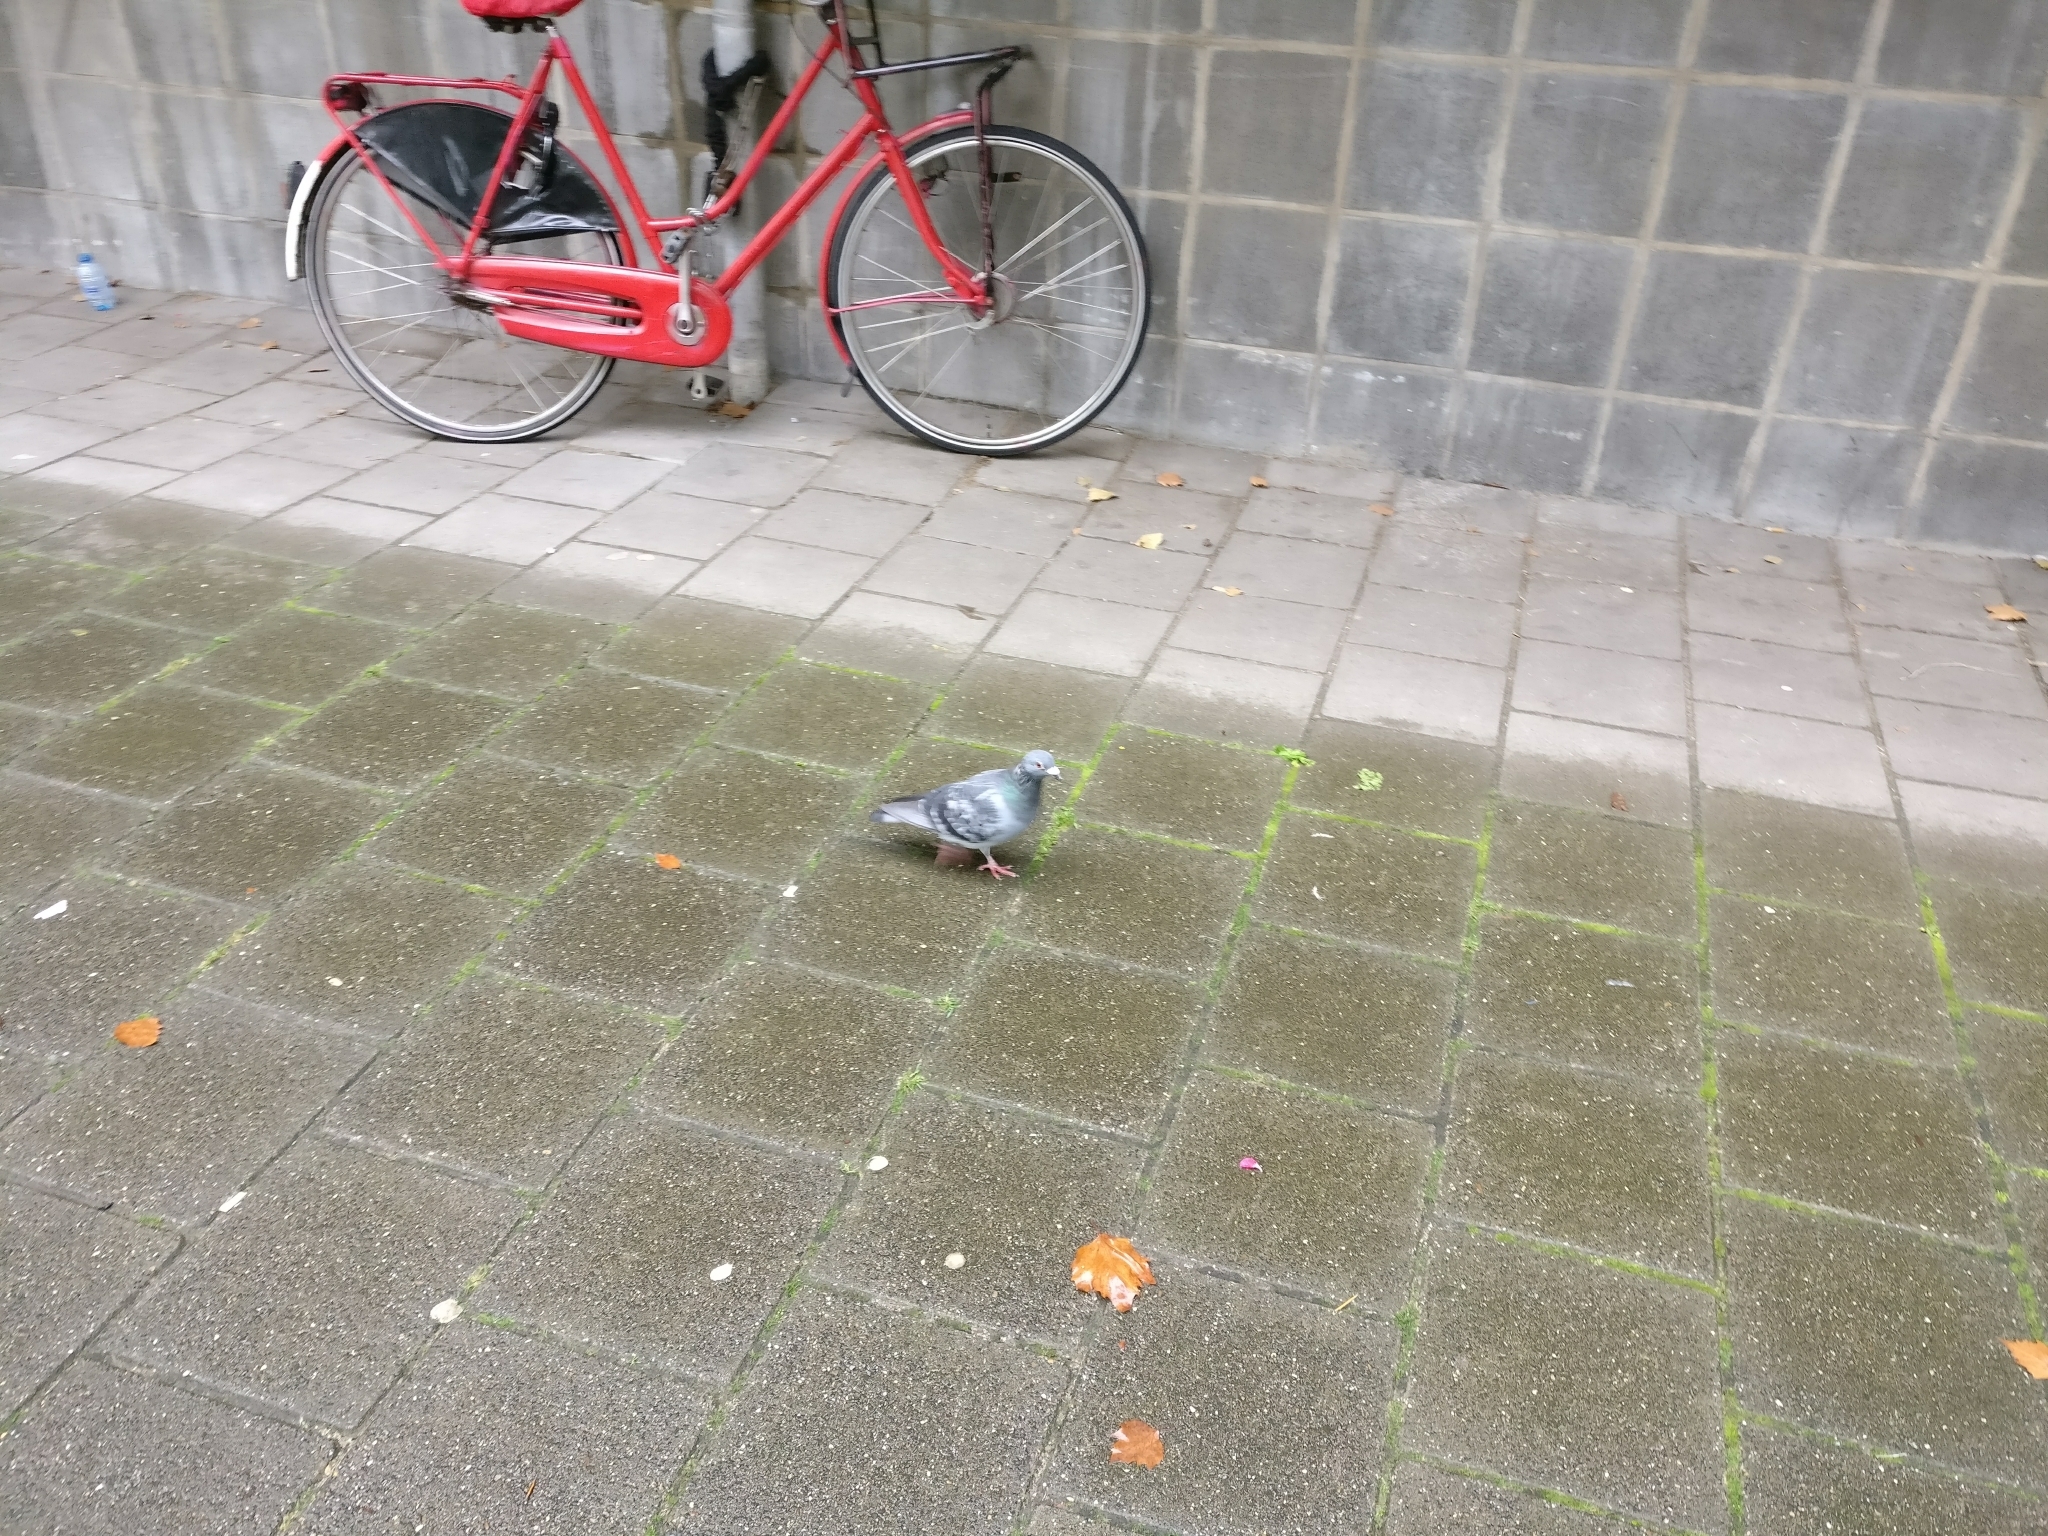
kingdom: Animalia
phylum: Chordata
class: Aves
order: Columbiformes
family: Columbidae
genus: Columba
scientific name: Columba livia
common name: Rock pigeon
